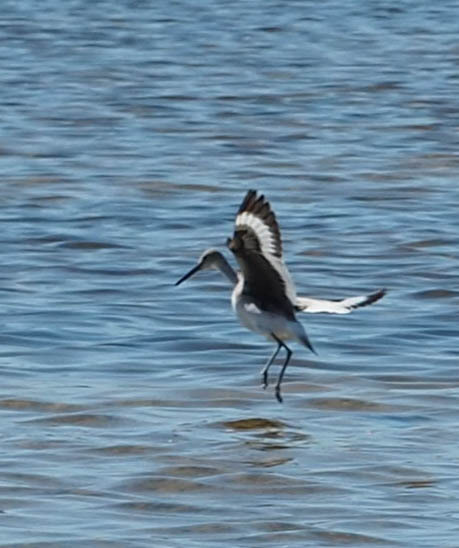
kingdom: Animalia
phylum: Chordata
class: Aves
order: Charadriiformes
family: Scolopacidae
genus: Tringa
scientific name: Tringa semipalmata
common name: Willet
